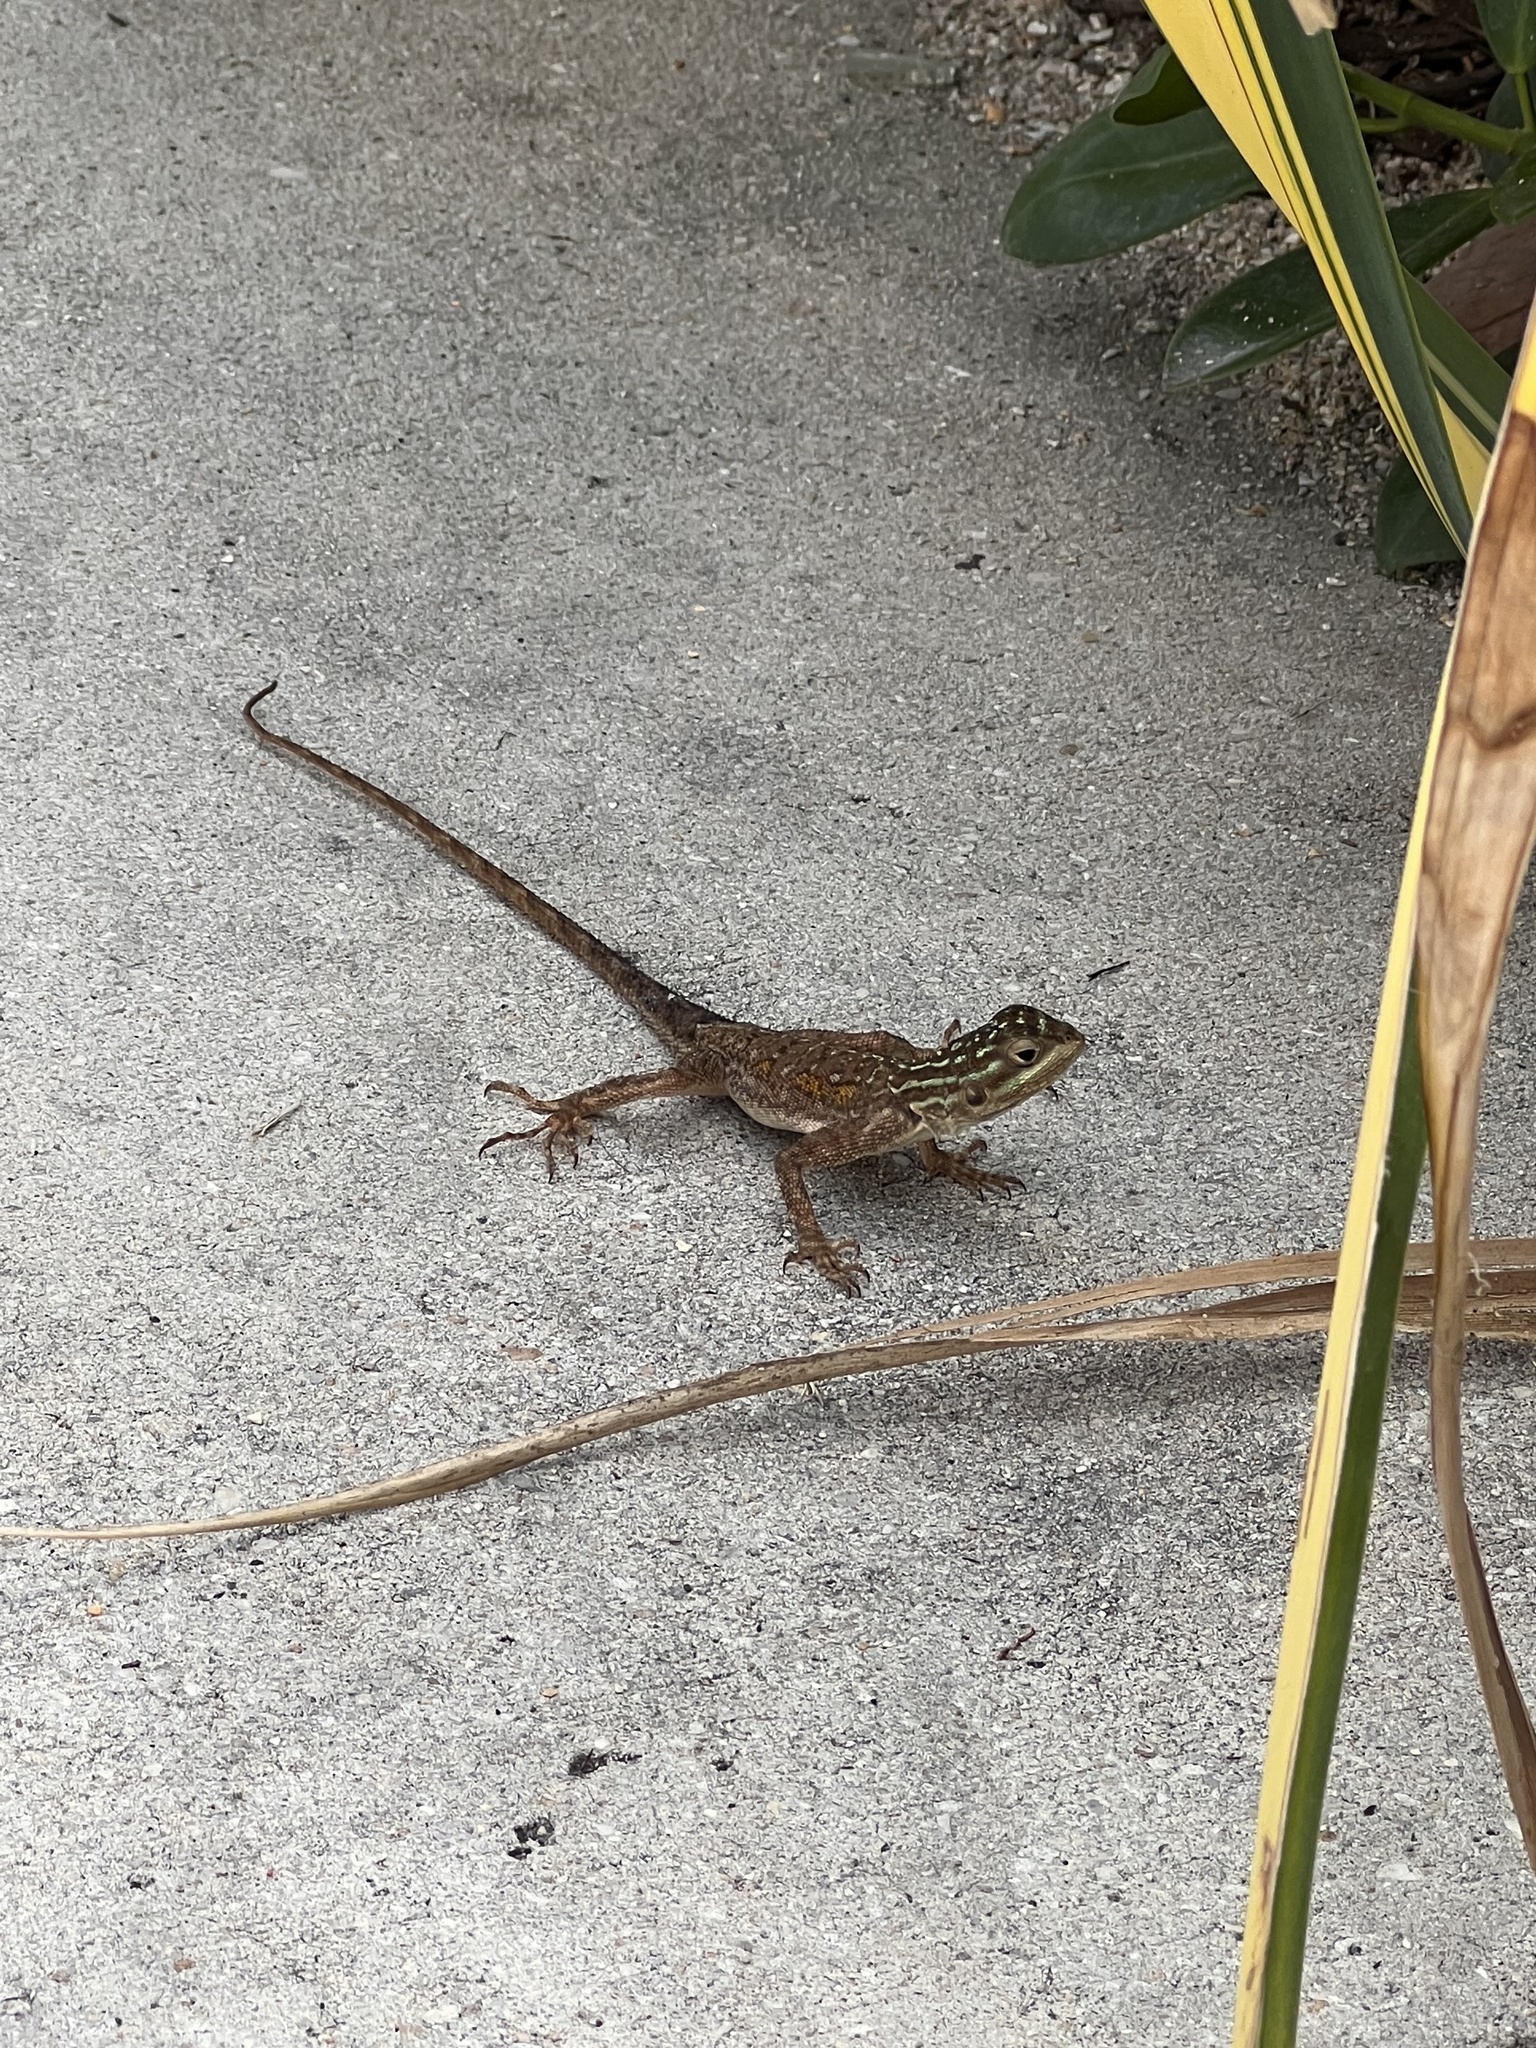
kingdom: Animalia
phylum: Chordata
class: Squamata
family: Agamidae
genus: Agama
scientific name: Agama picticauda
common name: Red-headed agama
